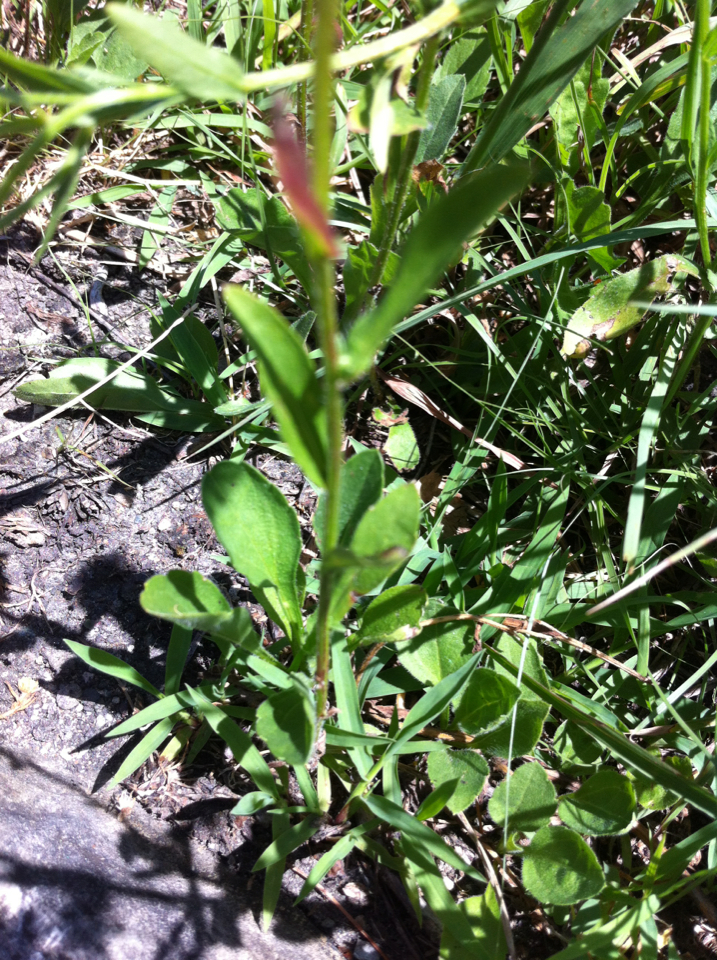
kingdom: Plantae
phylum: Tracheophyta
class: Magnoliopsida
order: Asterales
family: Asteraceae
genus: Erigeron
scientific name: Erigeron strigosus
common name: Common eastern fleabane
